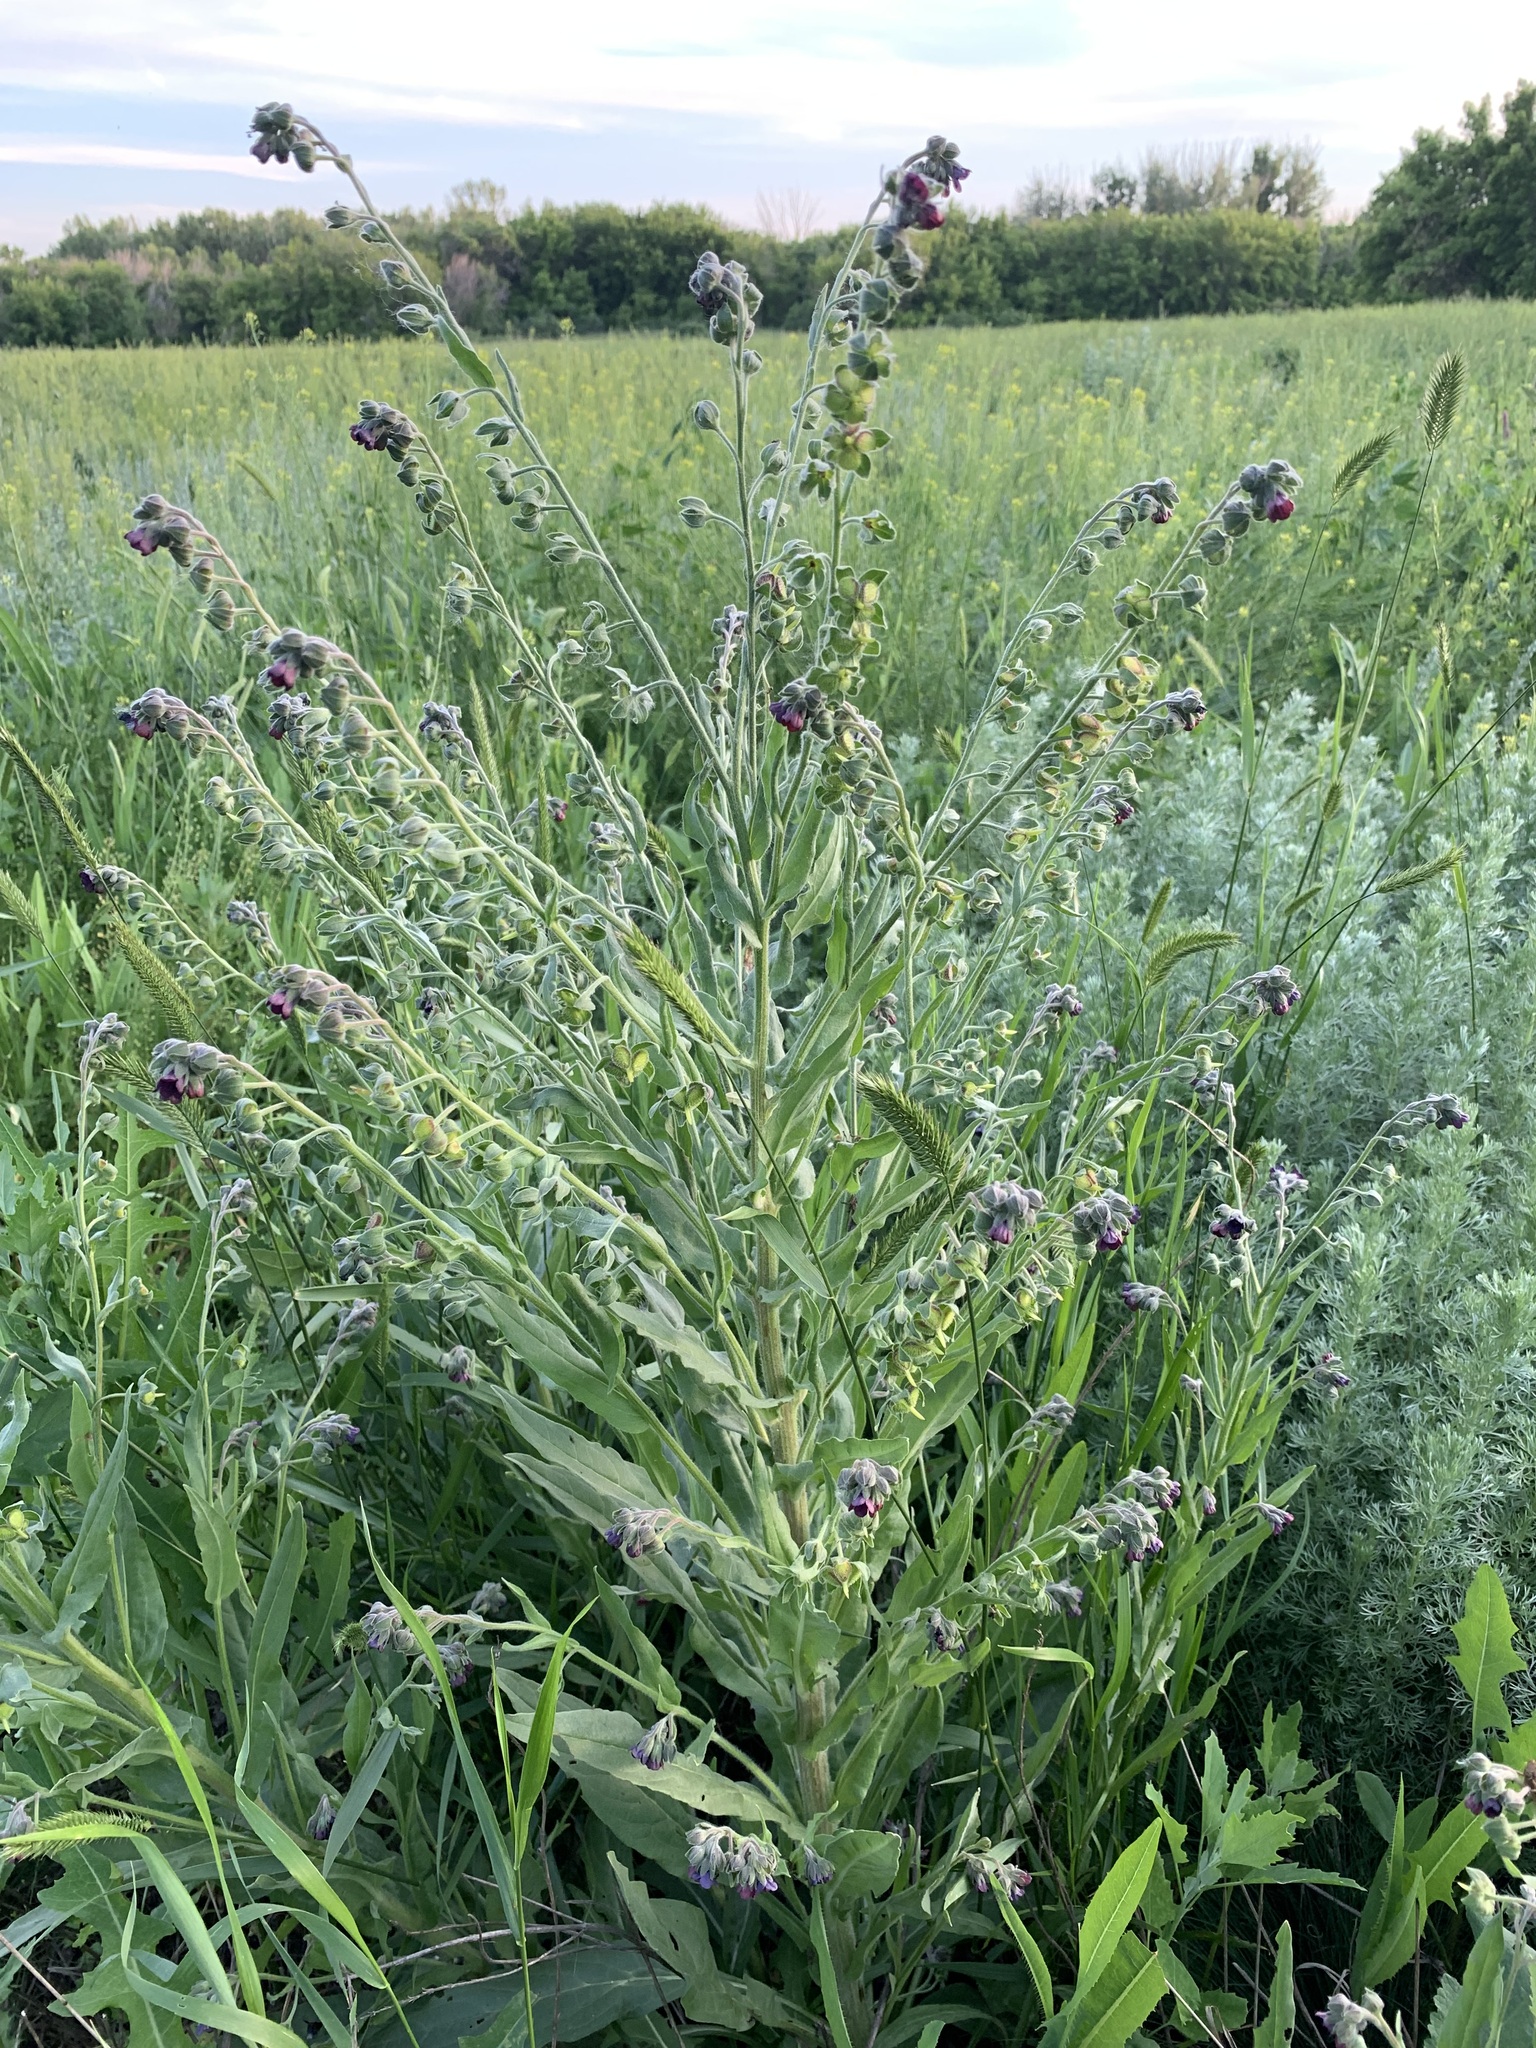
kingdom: Plantae
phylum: Tracheophyta
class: Magnoliopsida
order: Boraginales
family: Boraginaceae
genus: Cynoglossum
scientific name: Cynoglossum officinale
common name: Hound's-tongue
